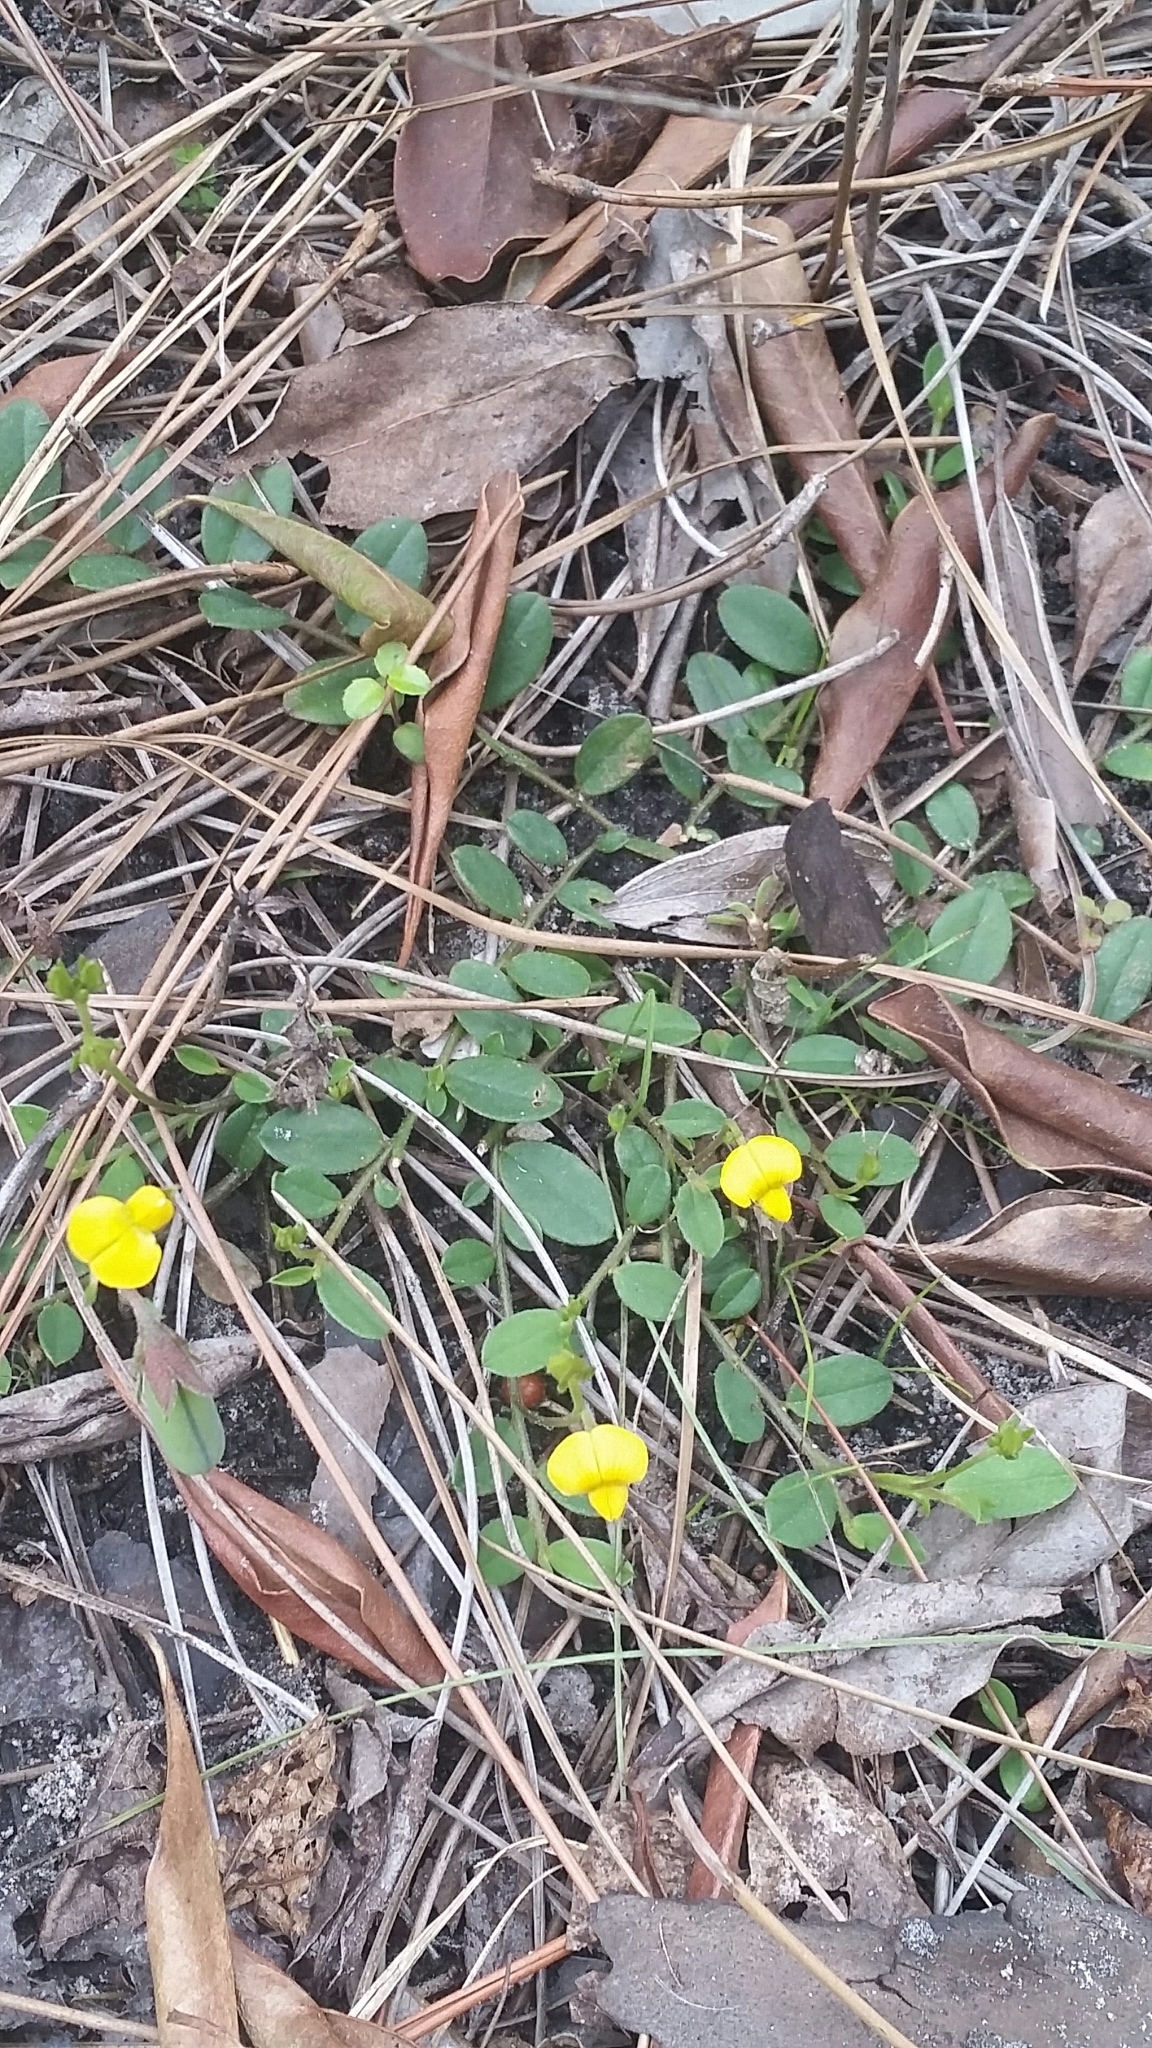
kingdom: Plantae
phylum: Tracheophyta
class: Magnoliopsida
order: Fabales
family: Fabaceae
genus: Crotalaria
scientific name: Crotalaria rotundifolia
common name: Prostrate rattlebox
